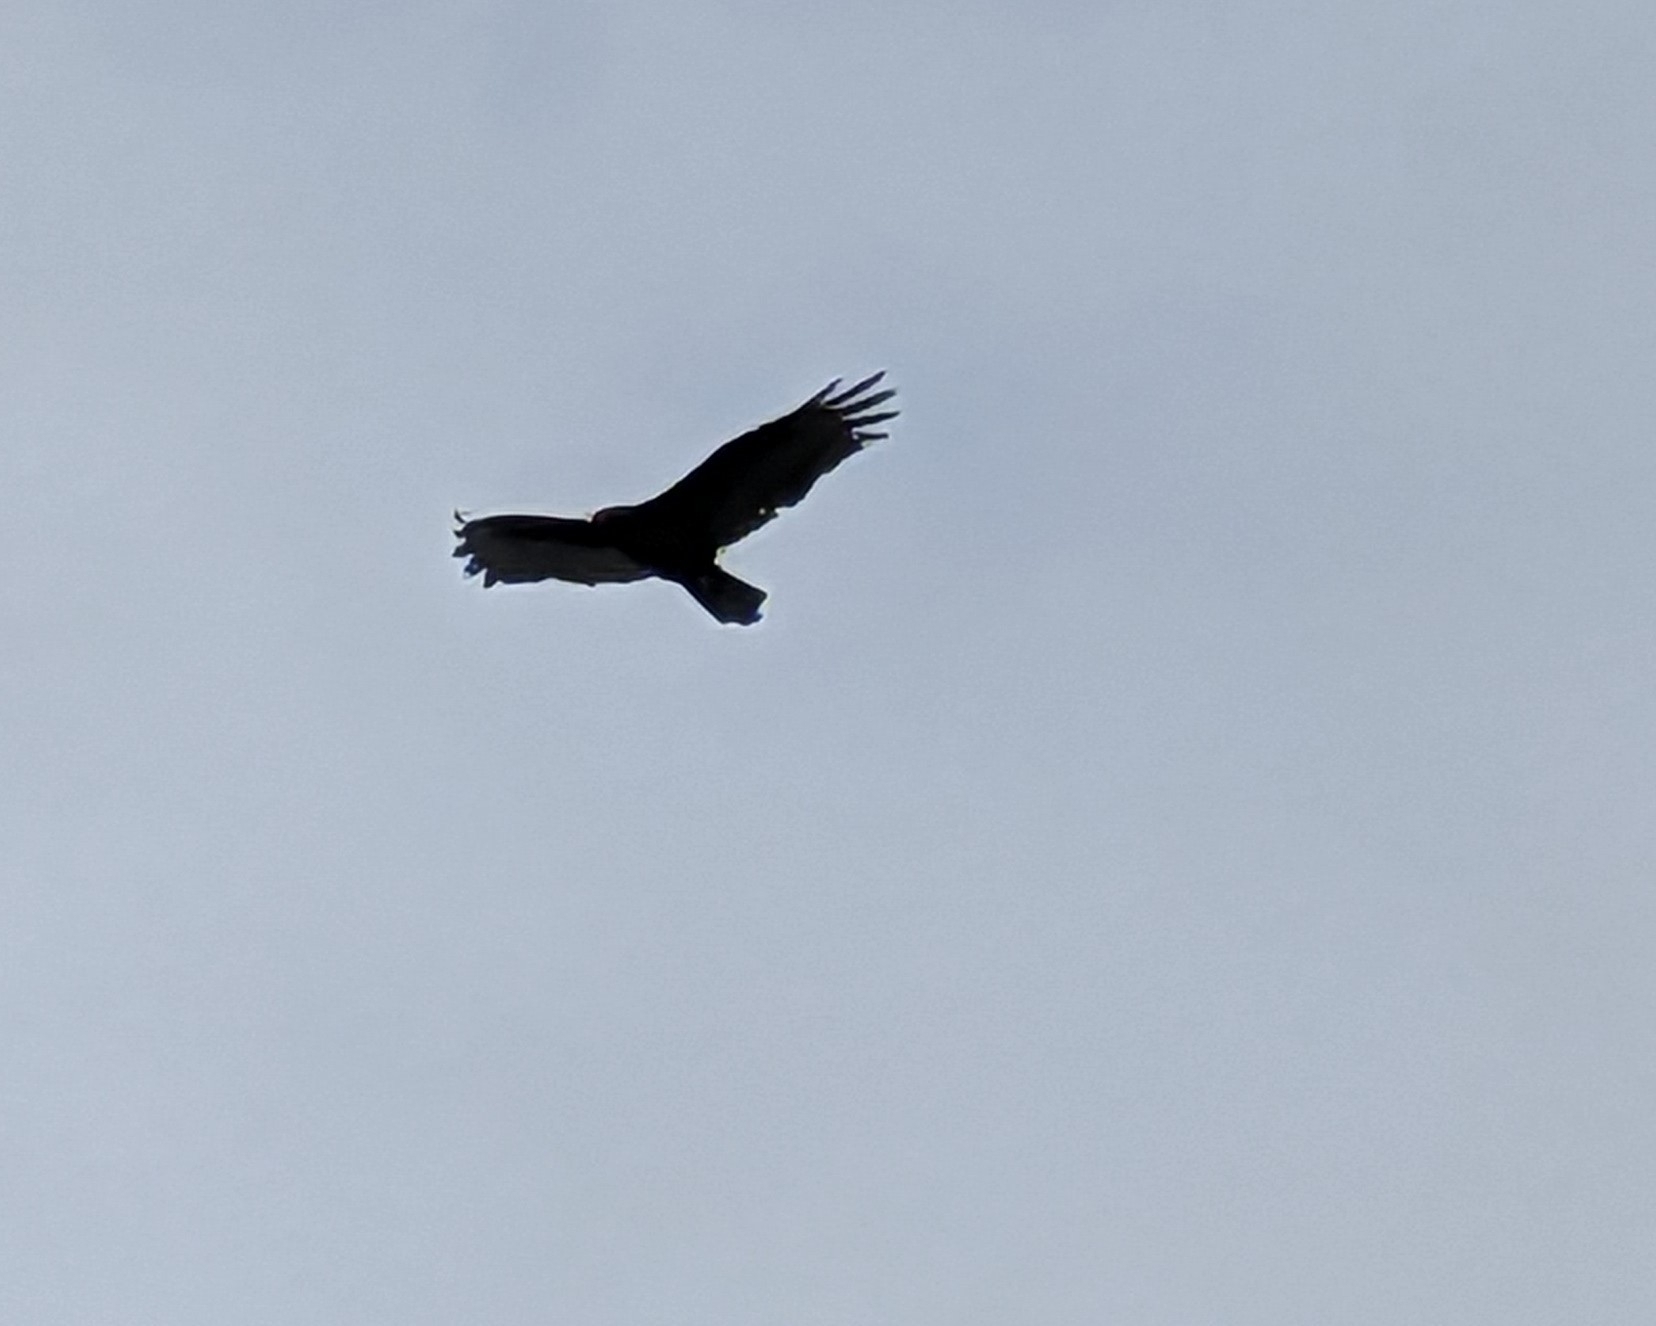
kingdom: Animalia
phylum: Chordata
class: Aves
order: Accipitriformes
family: Cathartidae
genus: Cathartes
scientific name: Cathartes aura
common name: Turkey vulture
